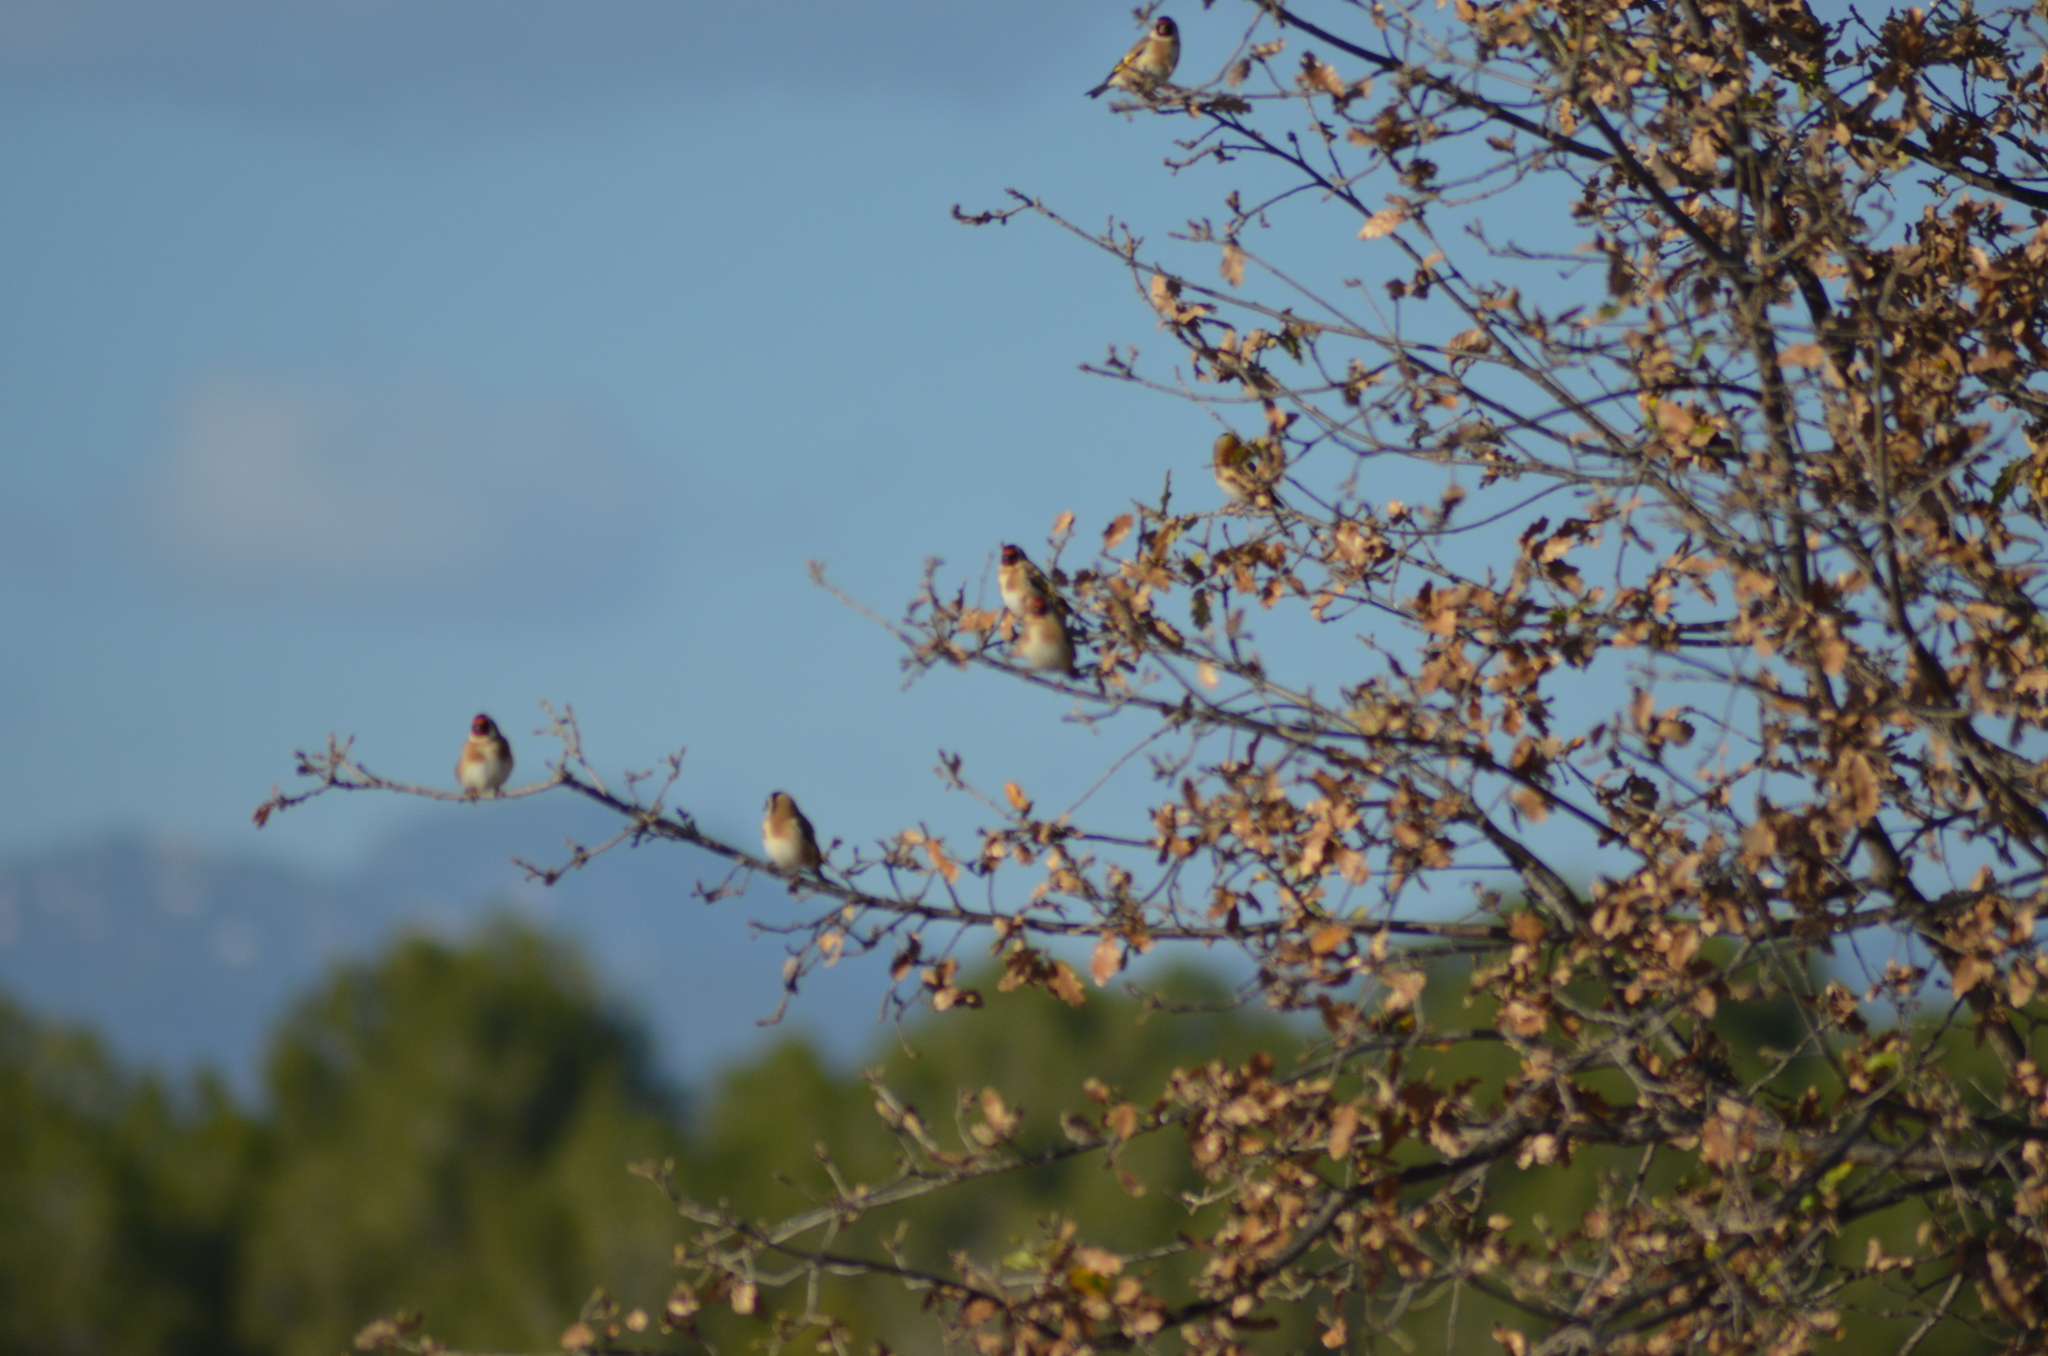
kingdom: Animalia
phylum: Chordata
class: Aves
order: Passeriformes
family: Fringillidae
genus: Carduelis
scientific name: Carduelis carduelis
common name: European goldfinch
